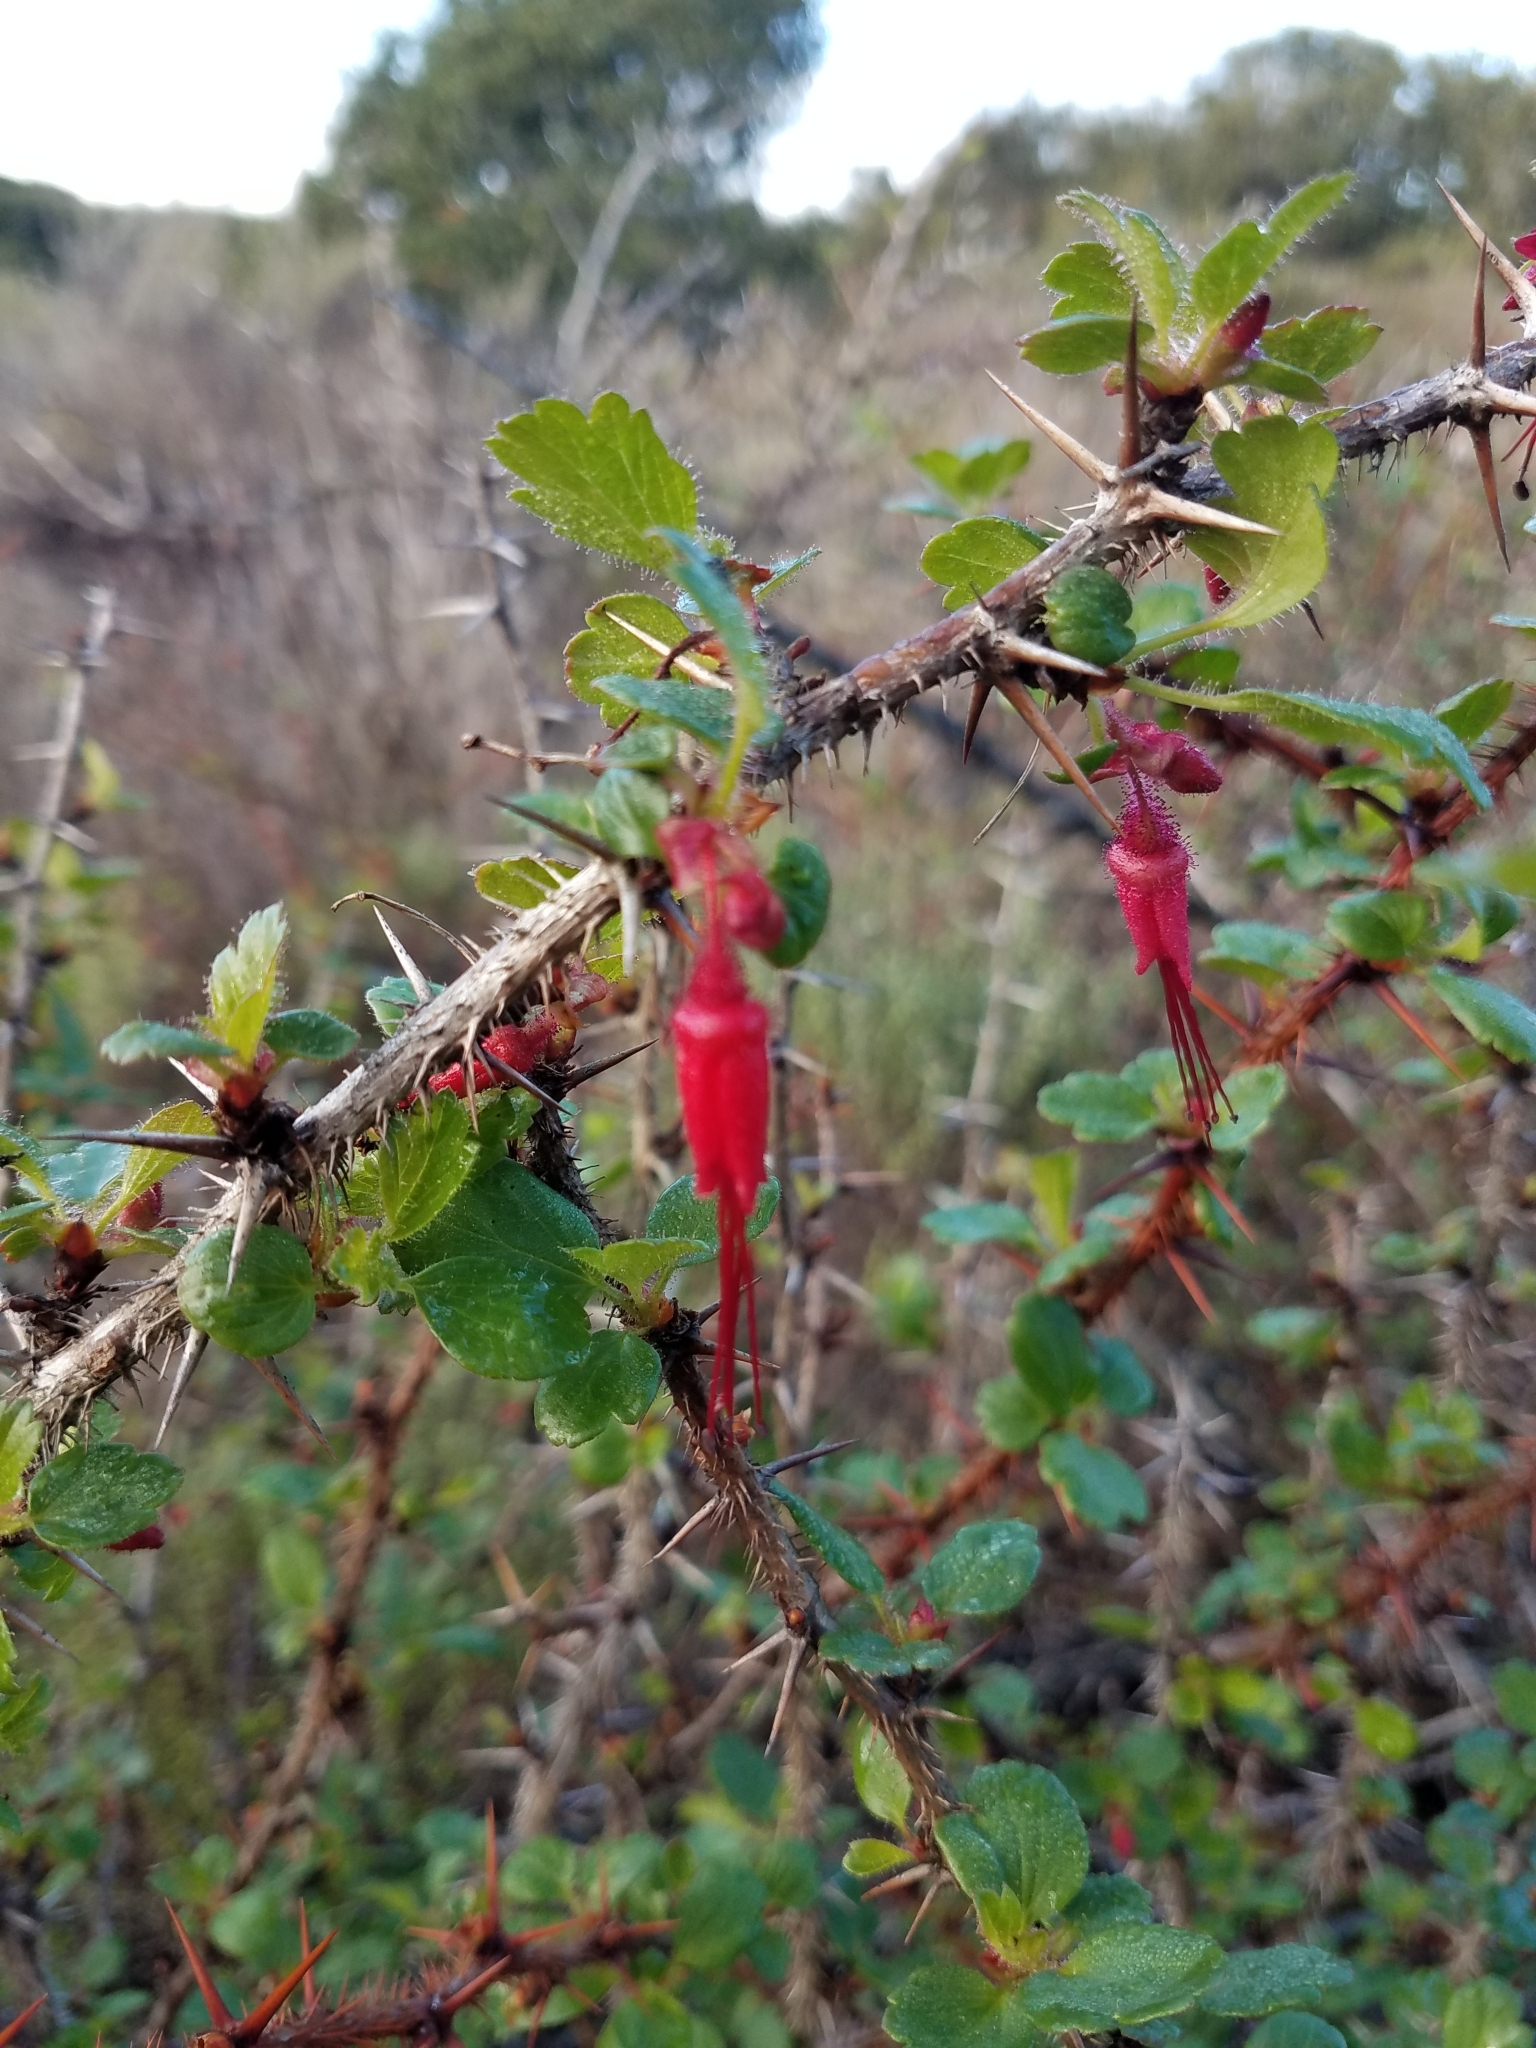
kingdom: Plantae
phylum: Tracheophyta
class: Magnoliopsida
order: Saxifragales
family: Grossulariaceae
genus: Ribes
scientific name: Ribes speciosum
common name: Fuchsia-flower gooseberry
